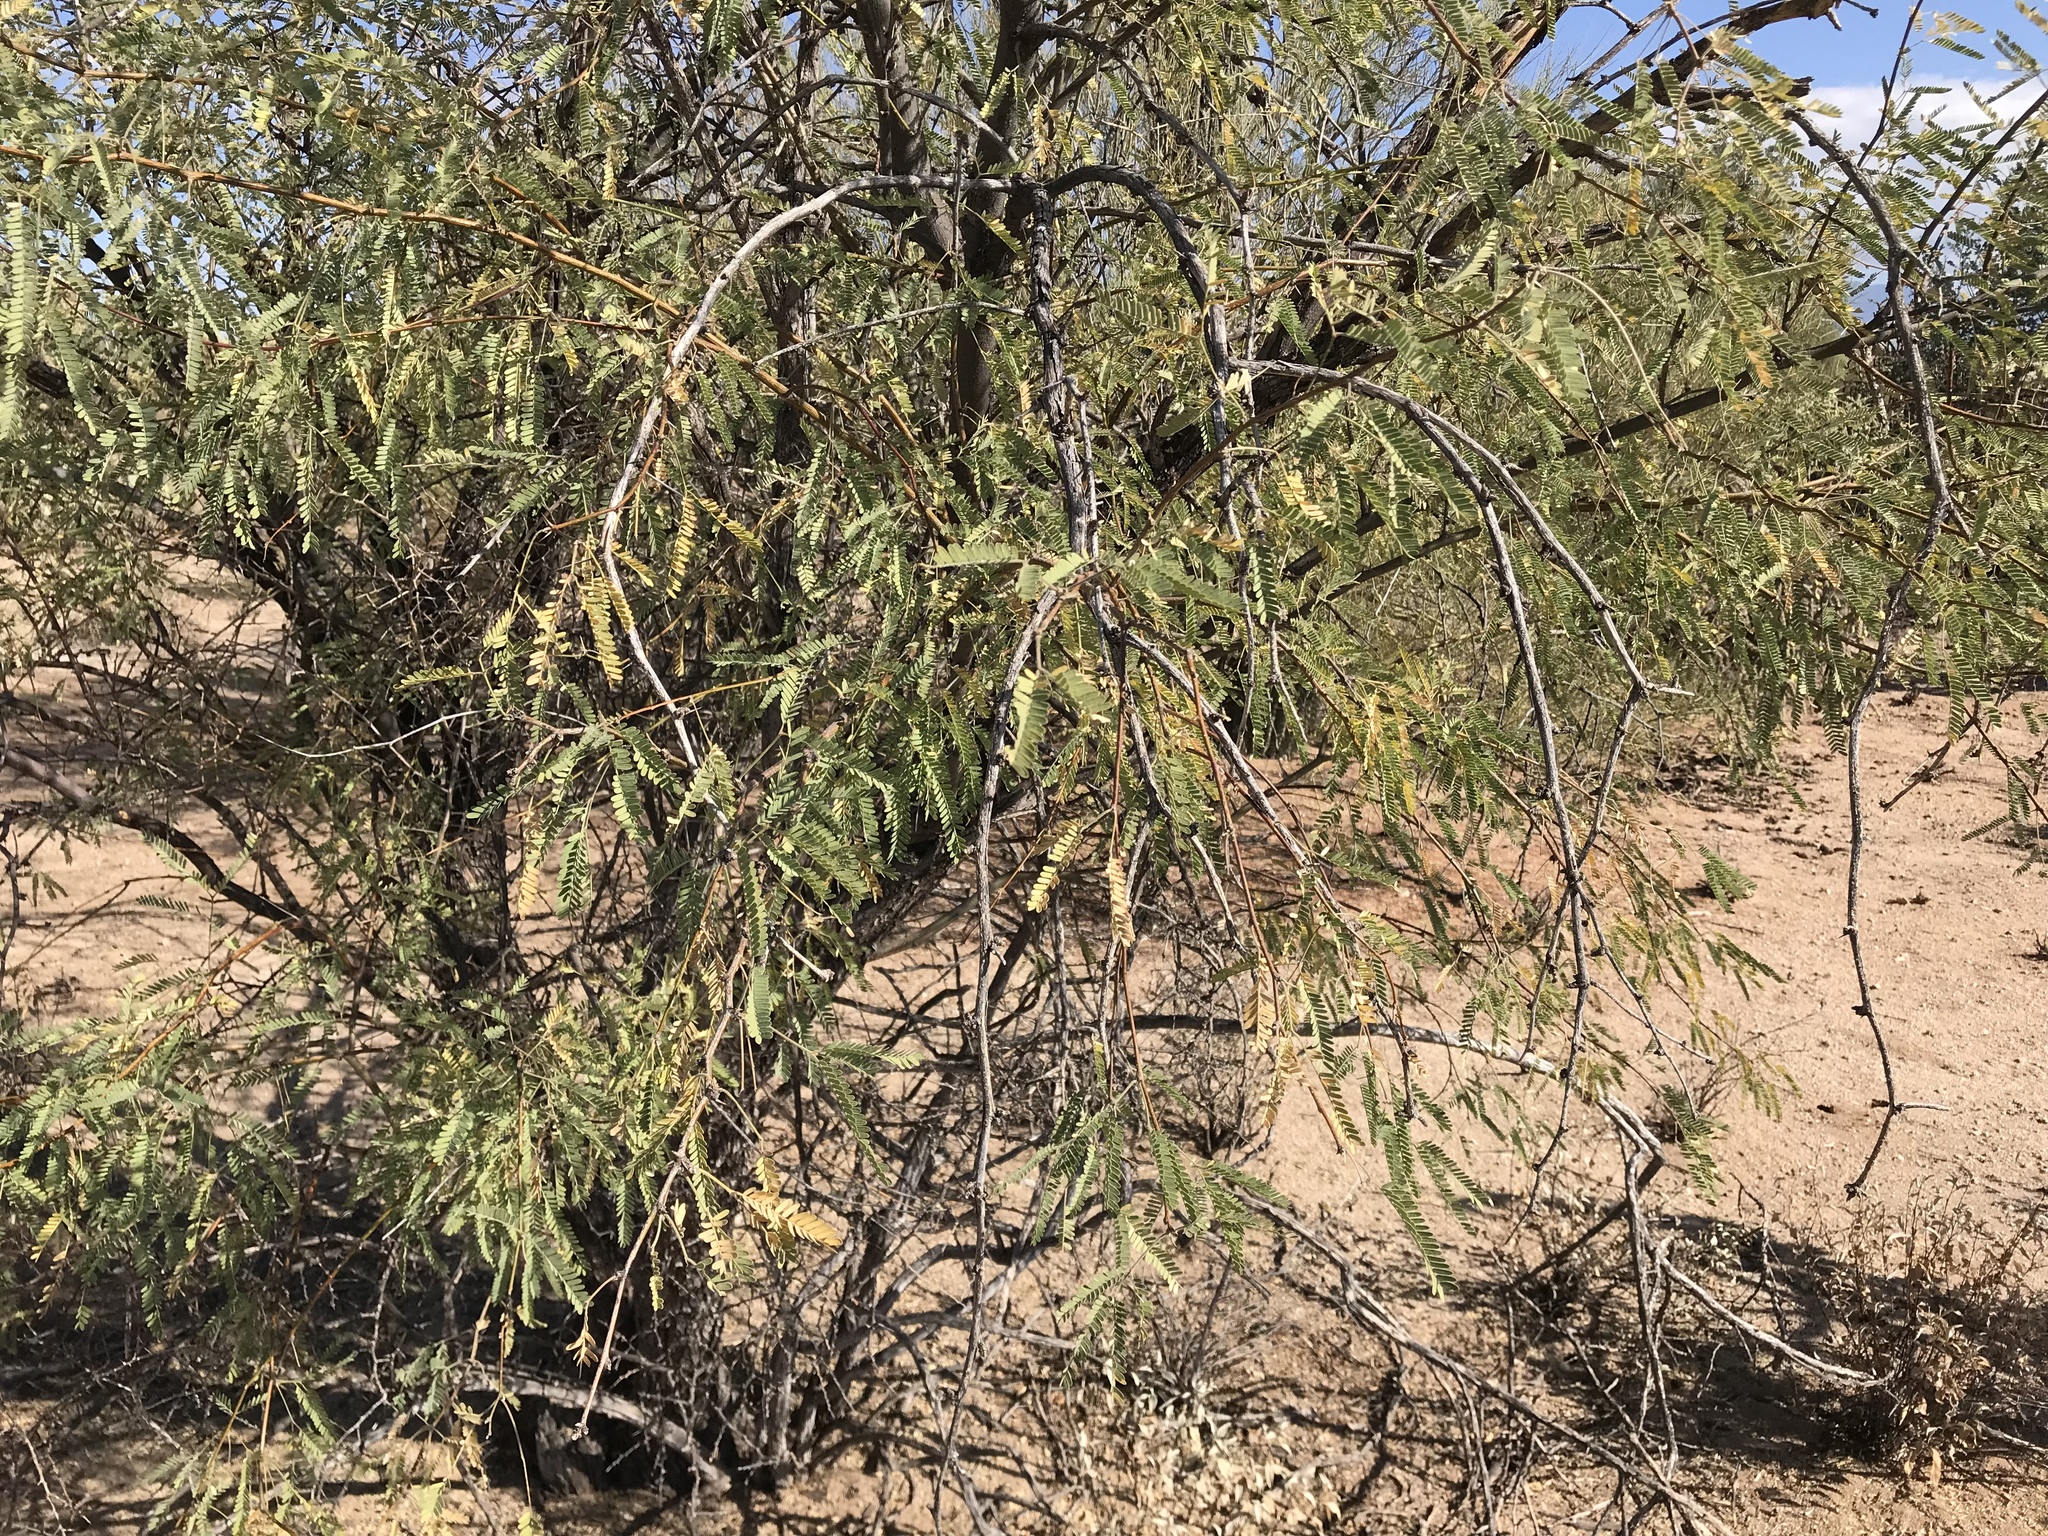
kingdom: Plantae
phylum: Tracheophyta
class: Magnoliopsida
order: Fabales
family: Fabaceae
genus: Prosopis
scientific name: Prosopis velutina
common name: Velvet mesquite
